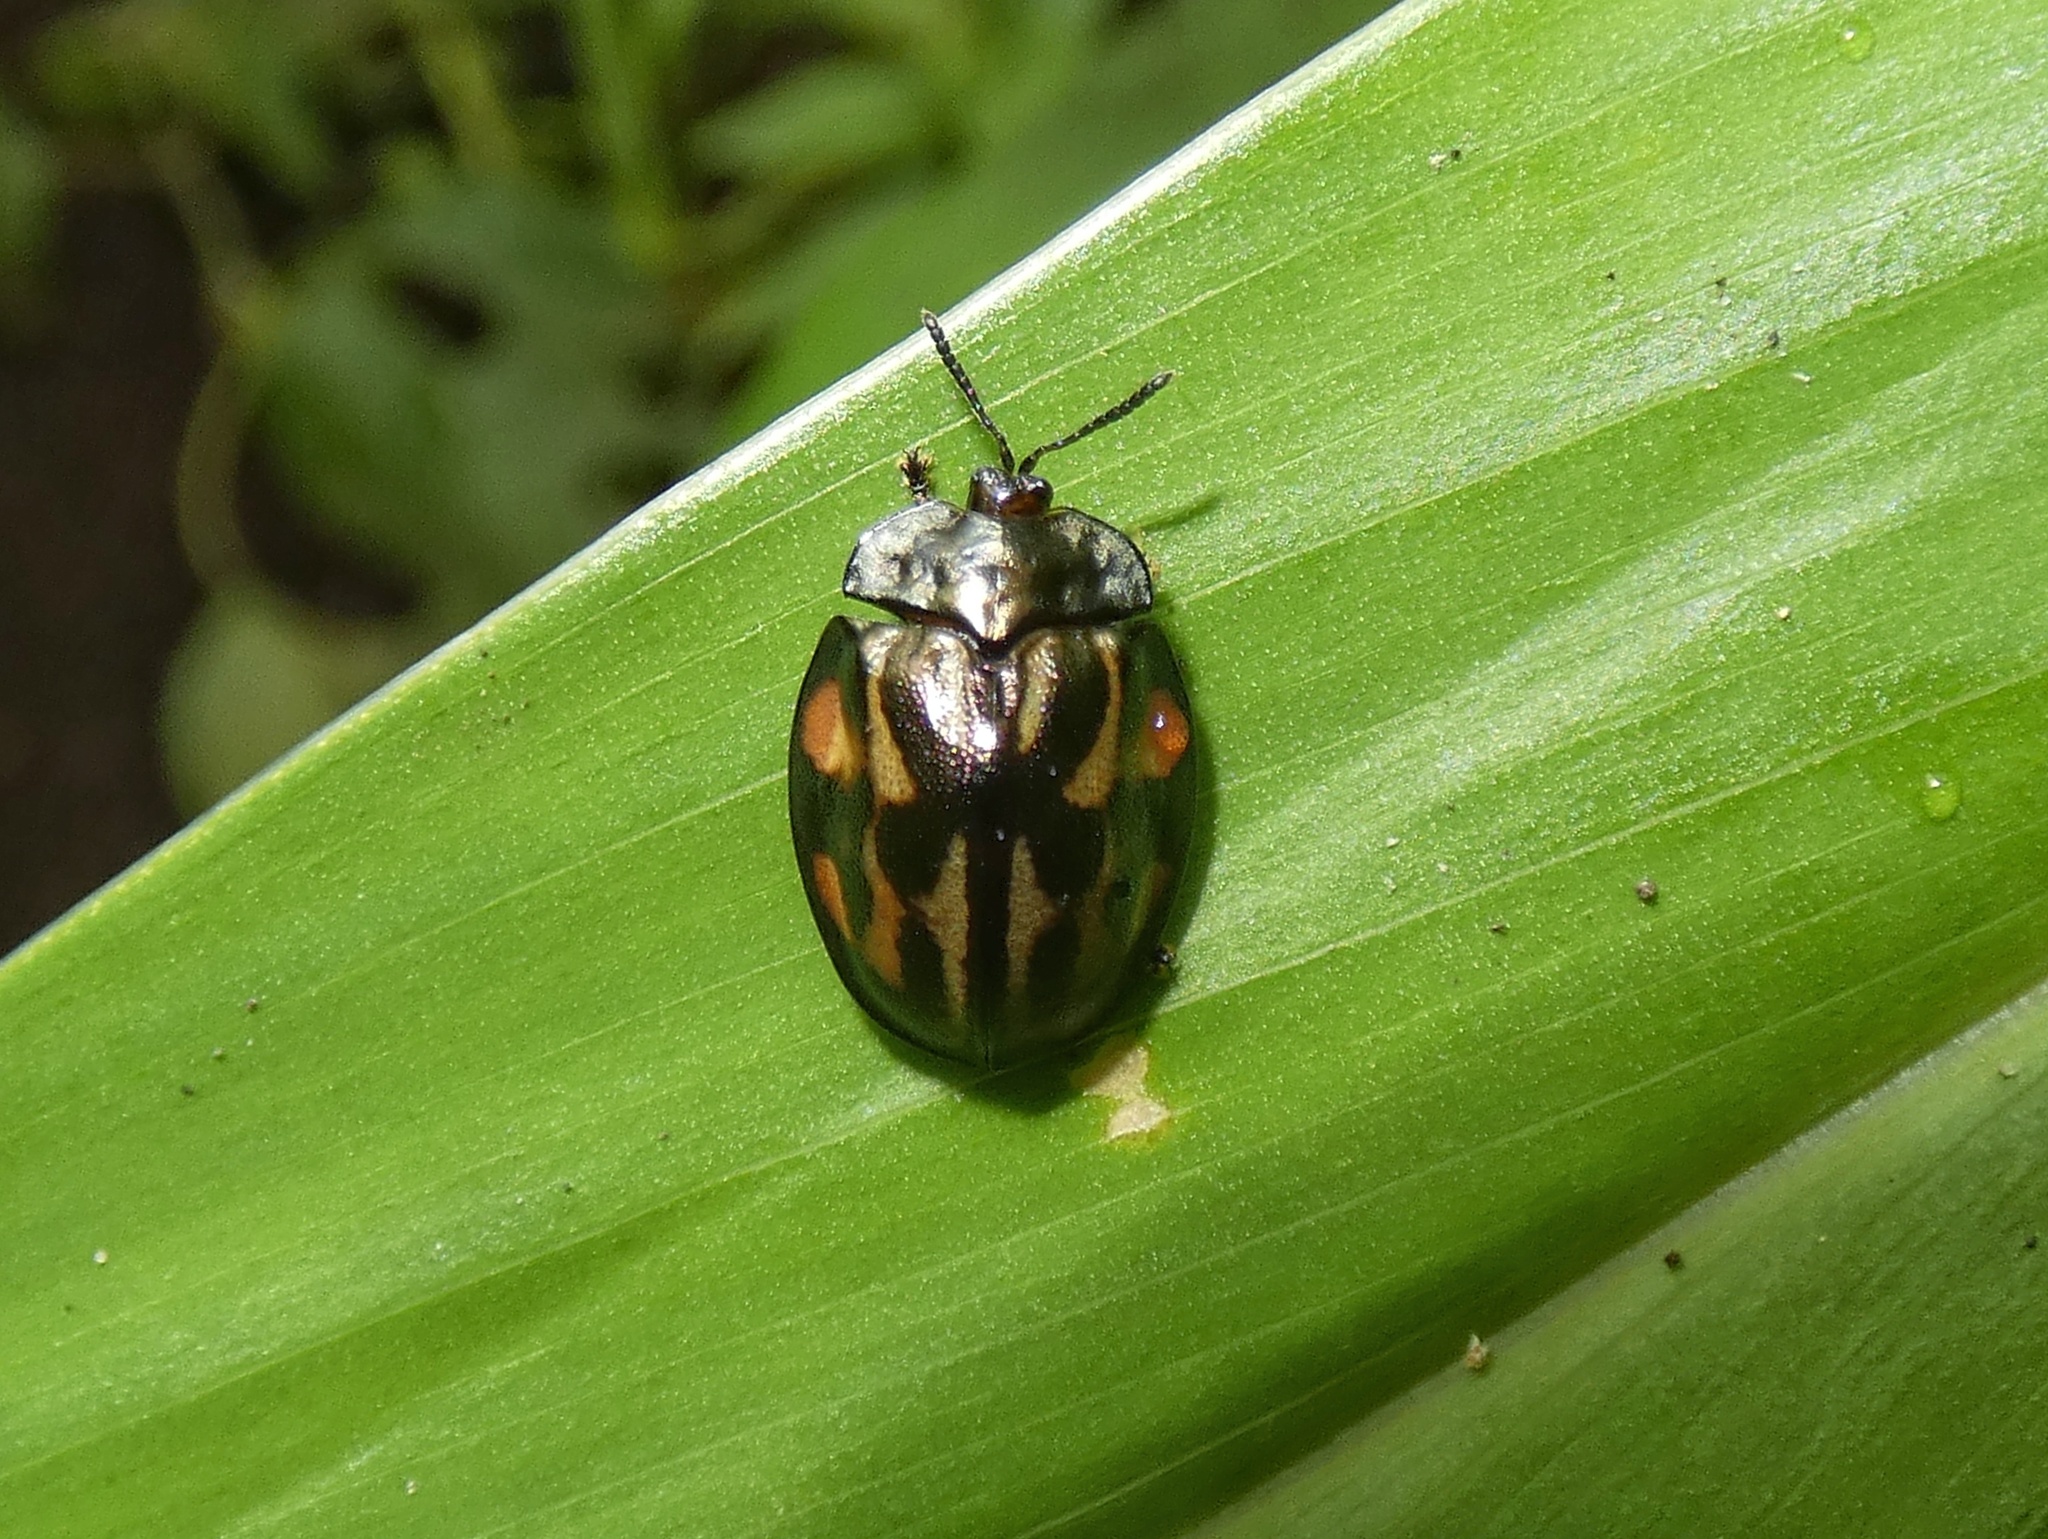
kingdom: Animalia
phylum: Arthropoda
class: Insecta
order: Coleoptera
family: Chrysomelidae
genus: Stolas
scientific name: Stolas pertusa
